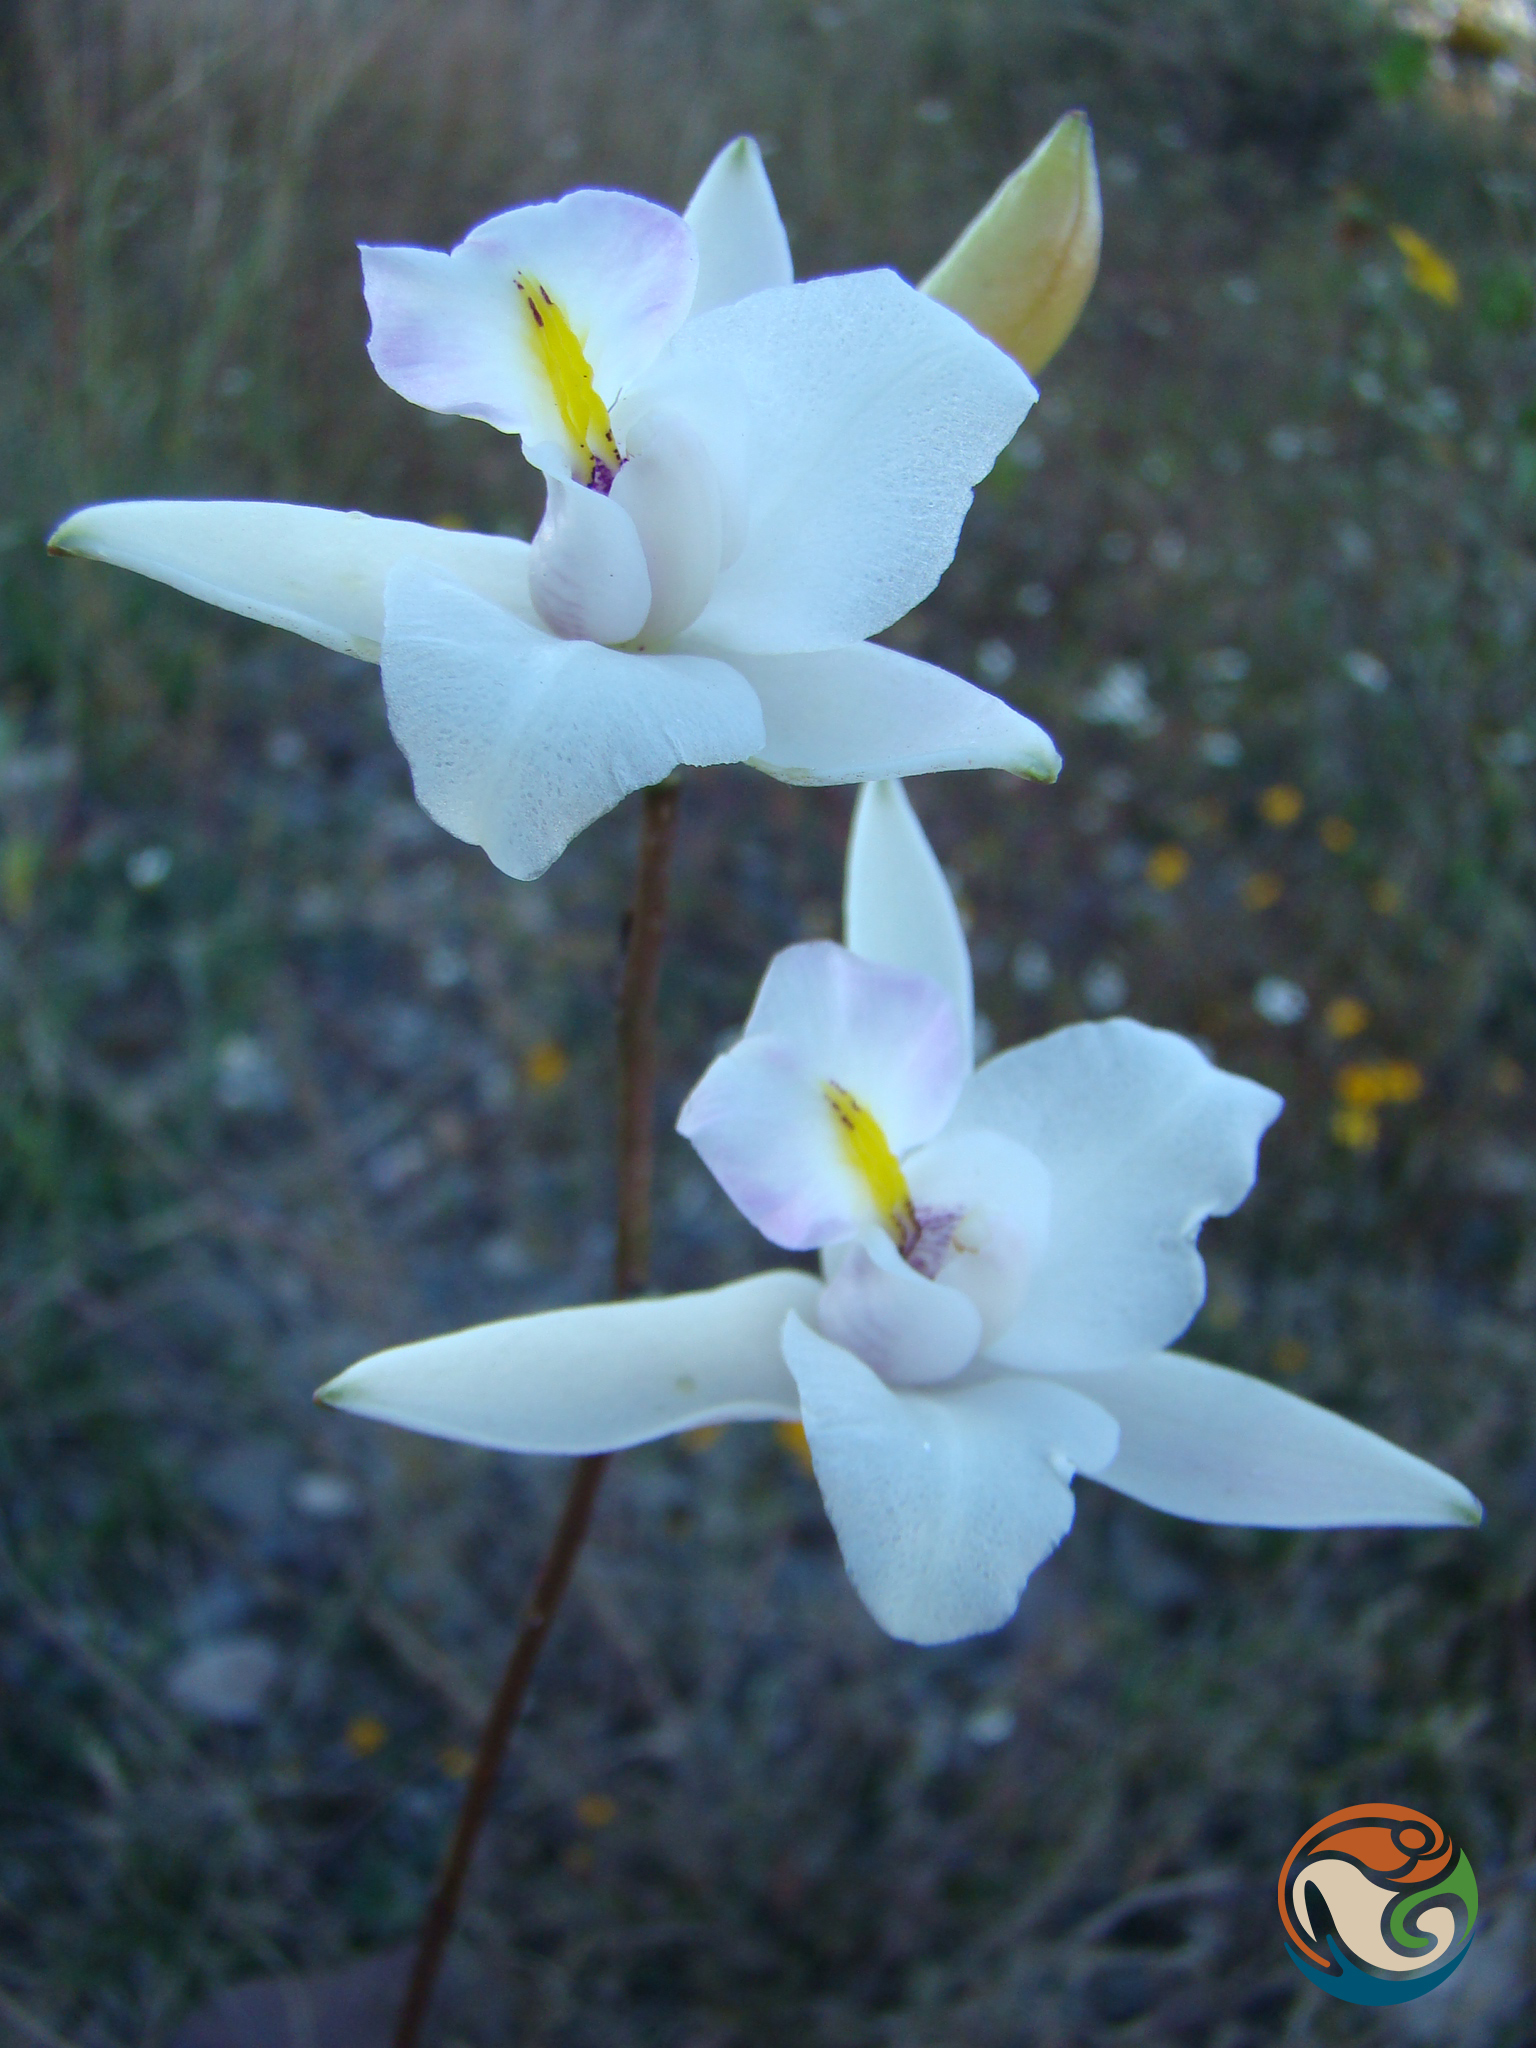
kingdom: Plantae
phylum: Tracheophyta
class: Liliopsida
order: Asparagales
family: Orchidaceae
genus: Laelia
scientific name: Laelia albida
